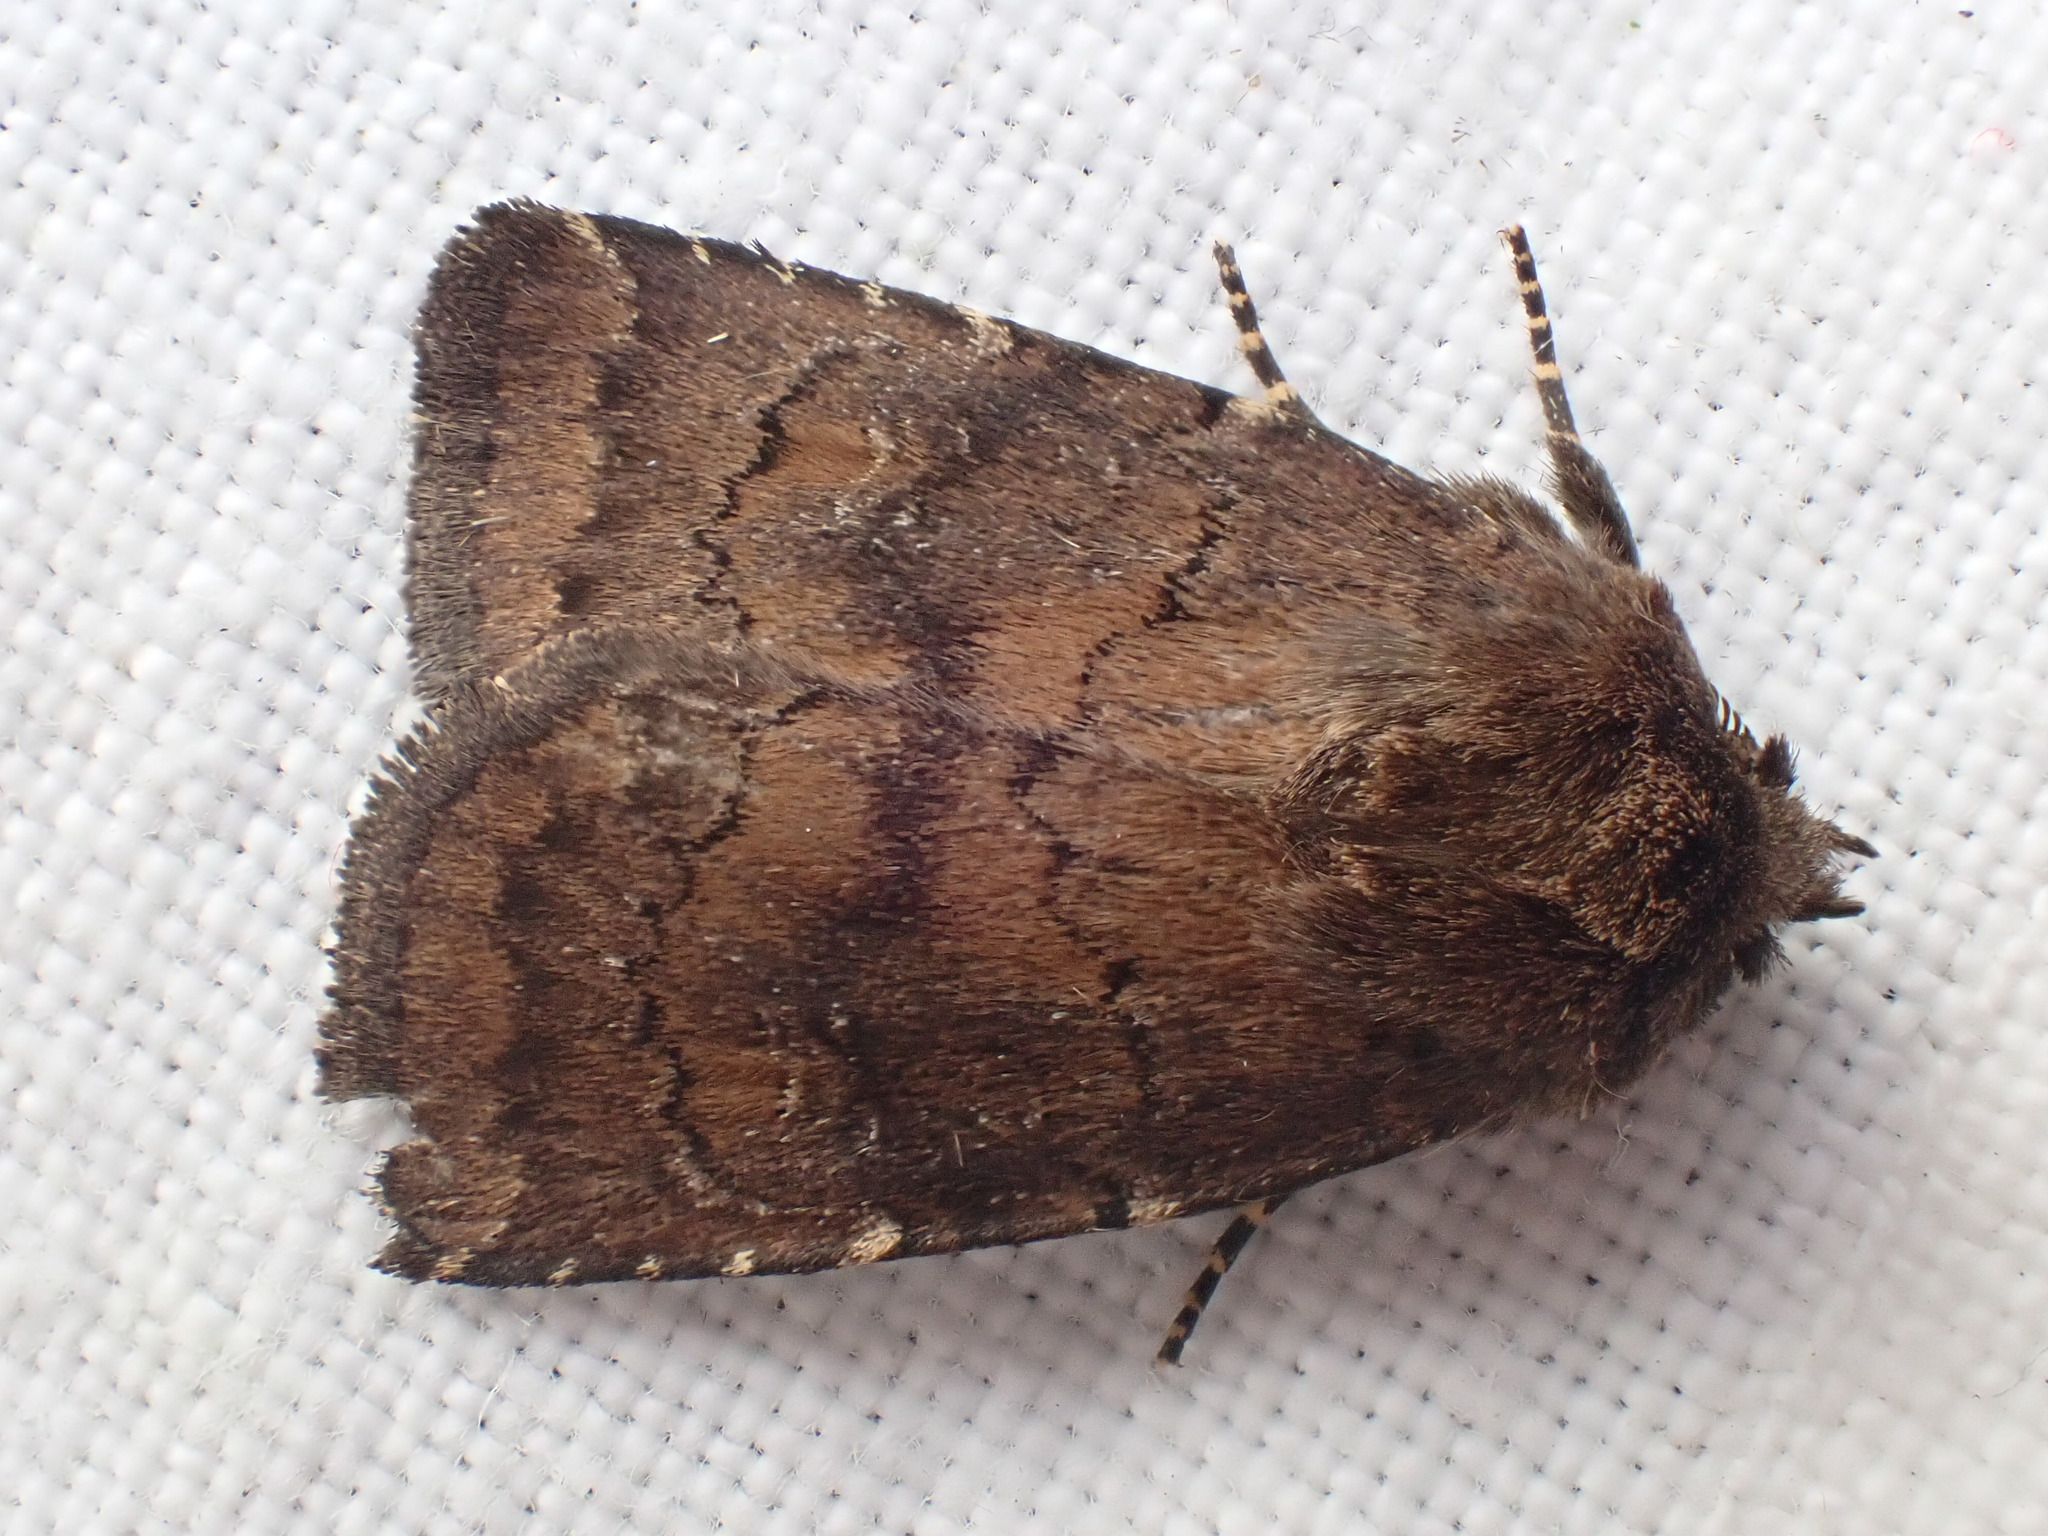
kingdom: Animalia
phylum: Arthropoda
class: Insecta
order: Lepidoptera
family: Noctuidae
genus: Charanyca
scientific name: Charanyca ferruginea
